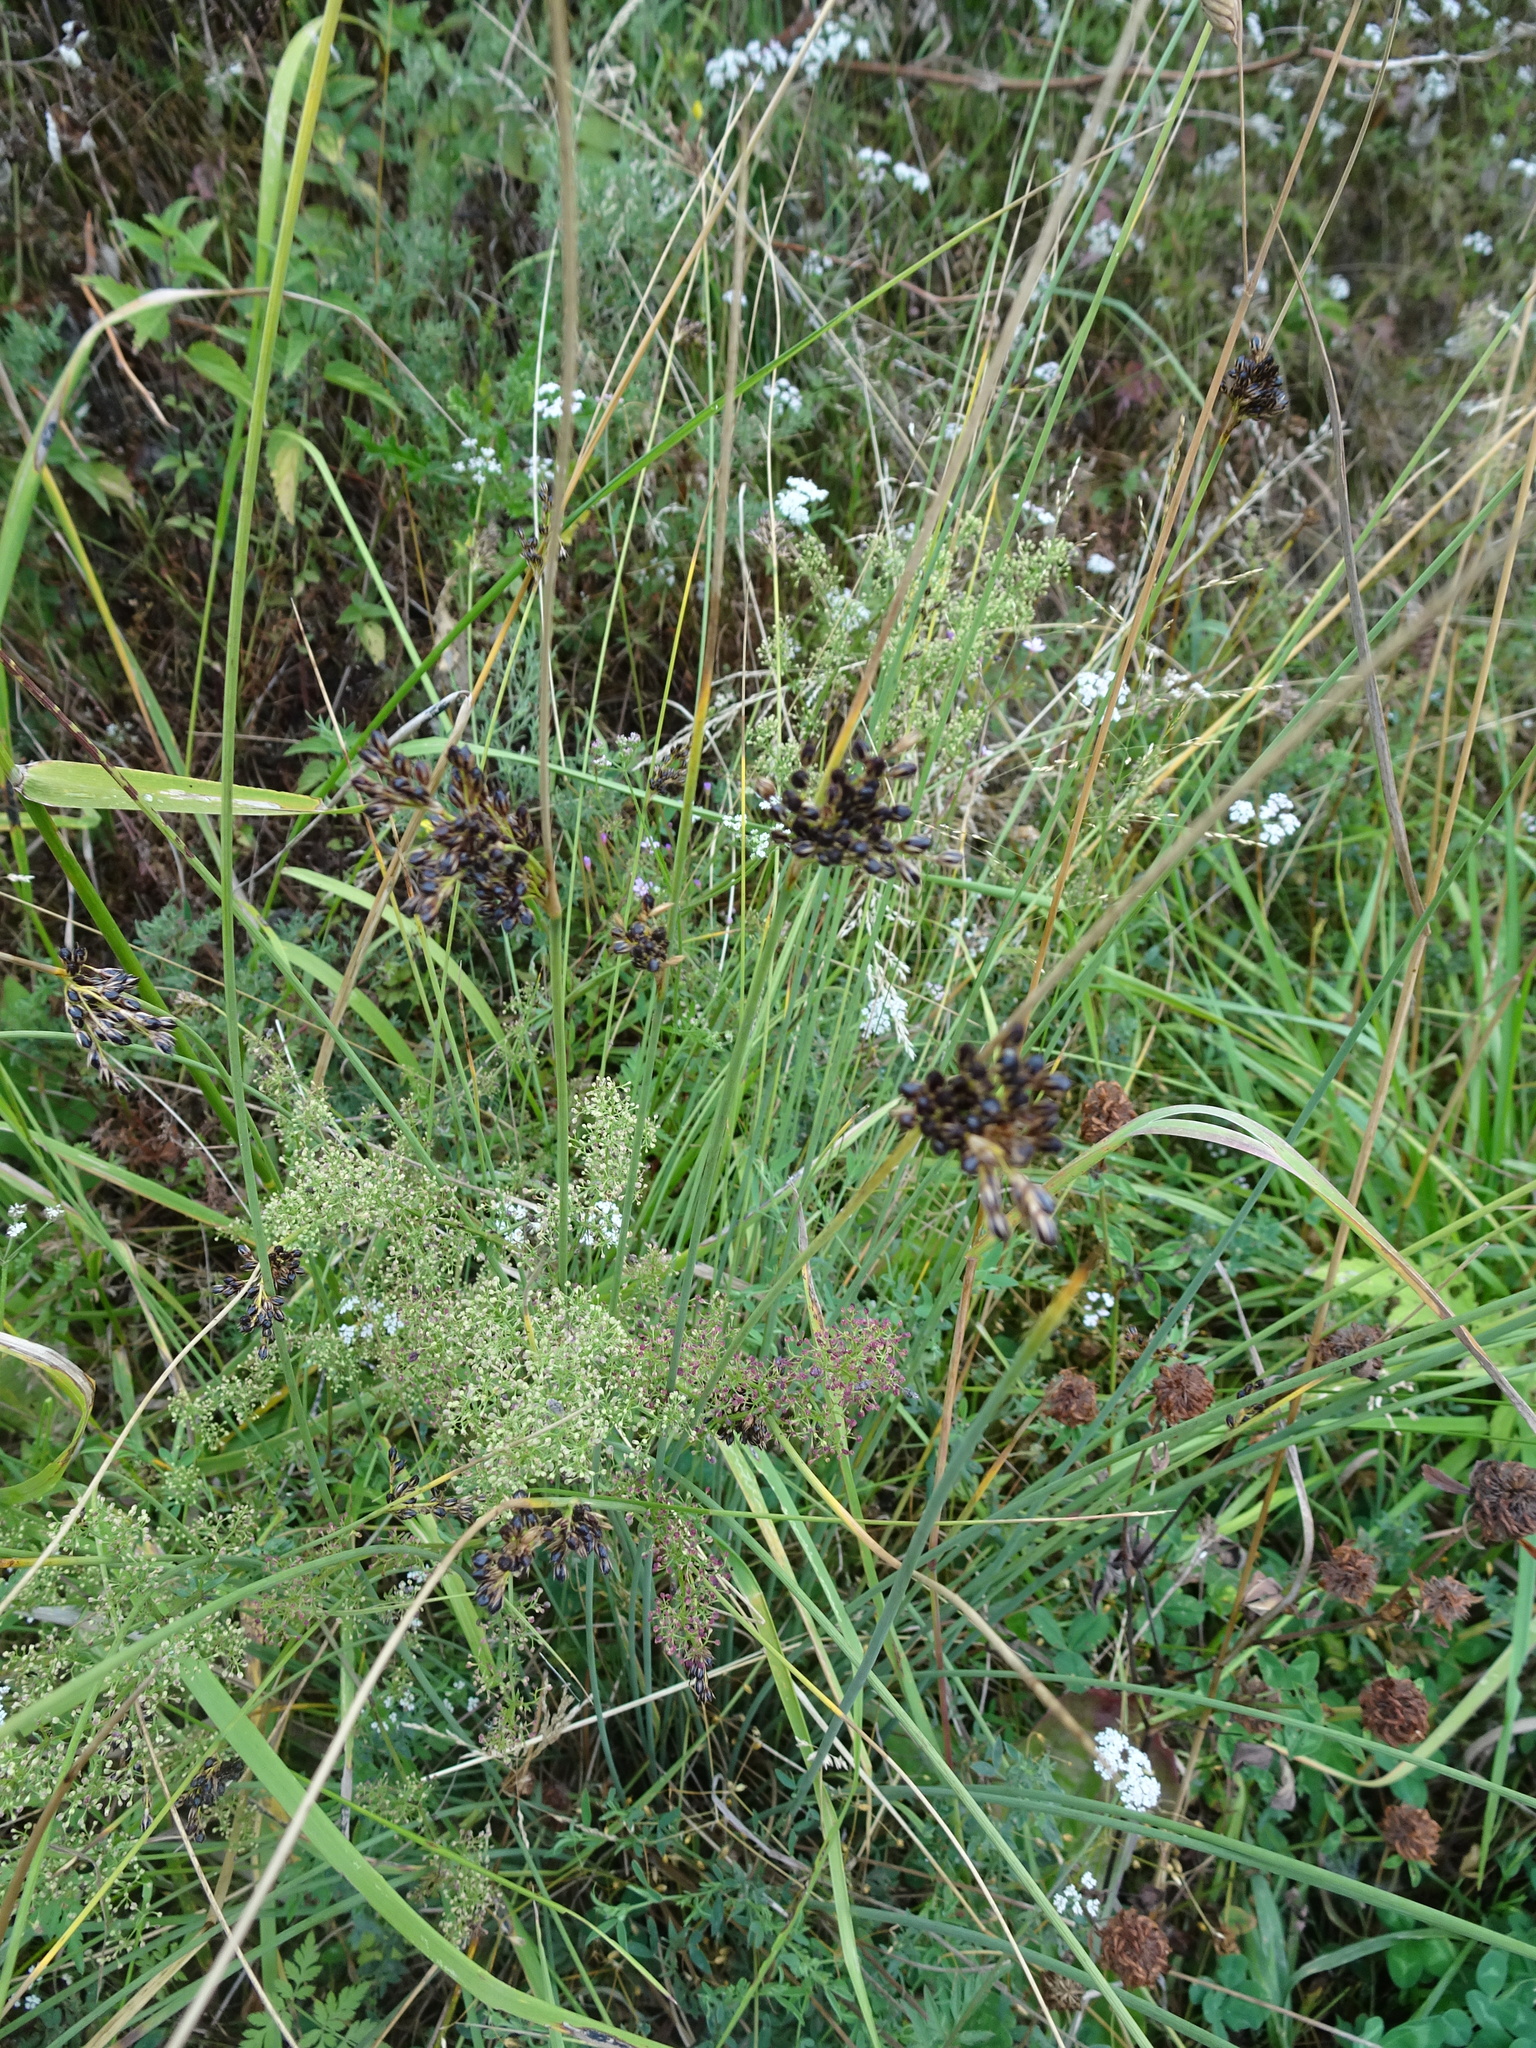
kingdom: Plantae
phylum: Tracheophyta
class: Liliopsida
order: Poales
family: Juncaceae
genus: Juncus
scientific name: Juncus articulatus
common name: Jointed rush
